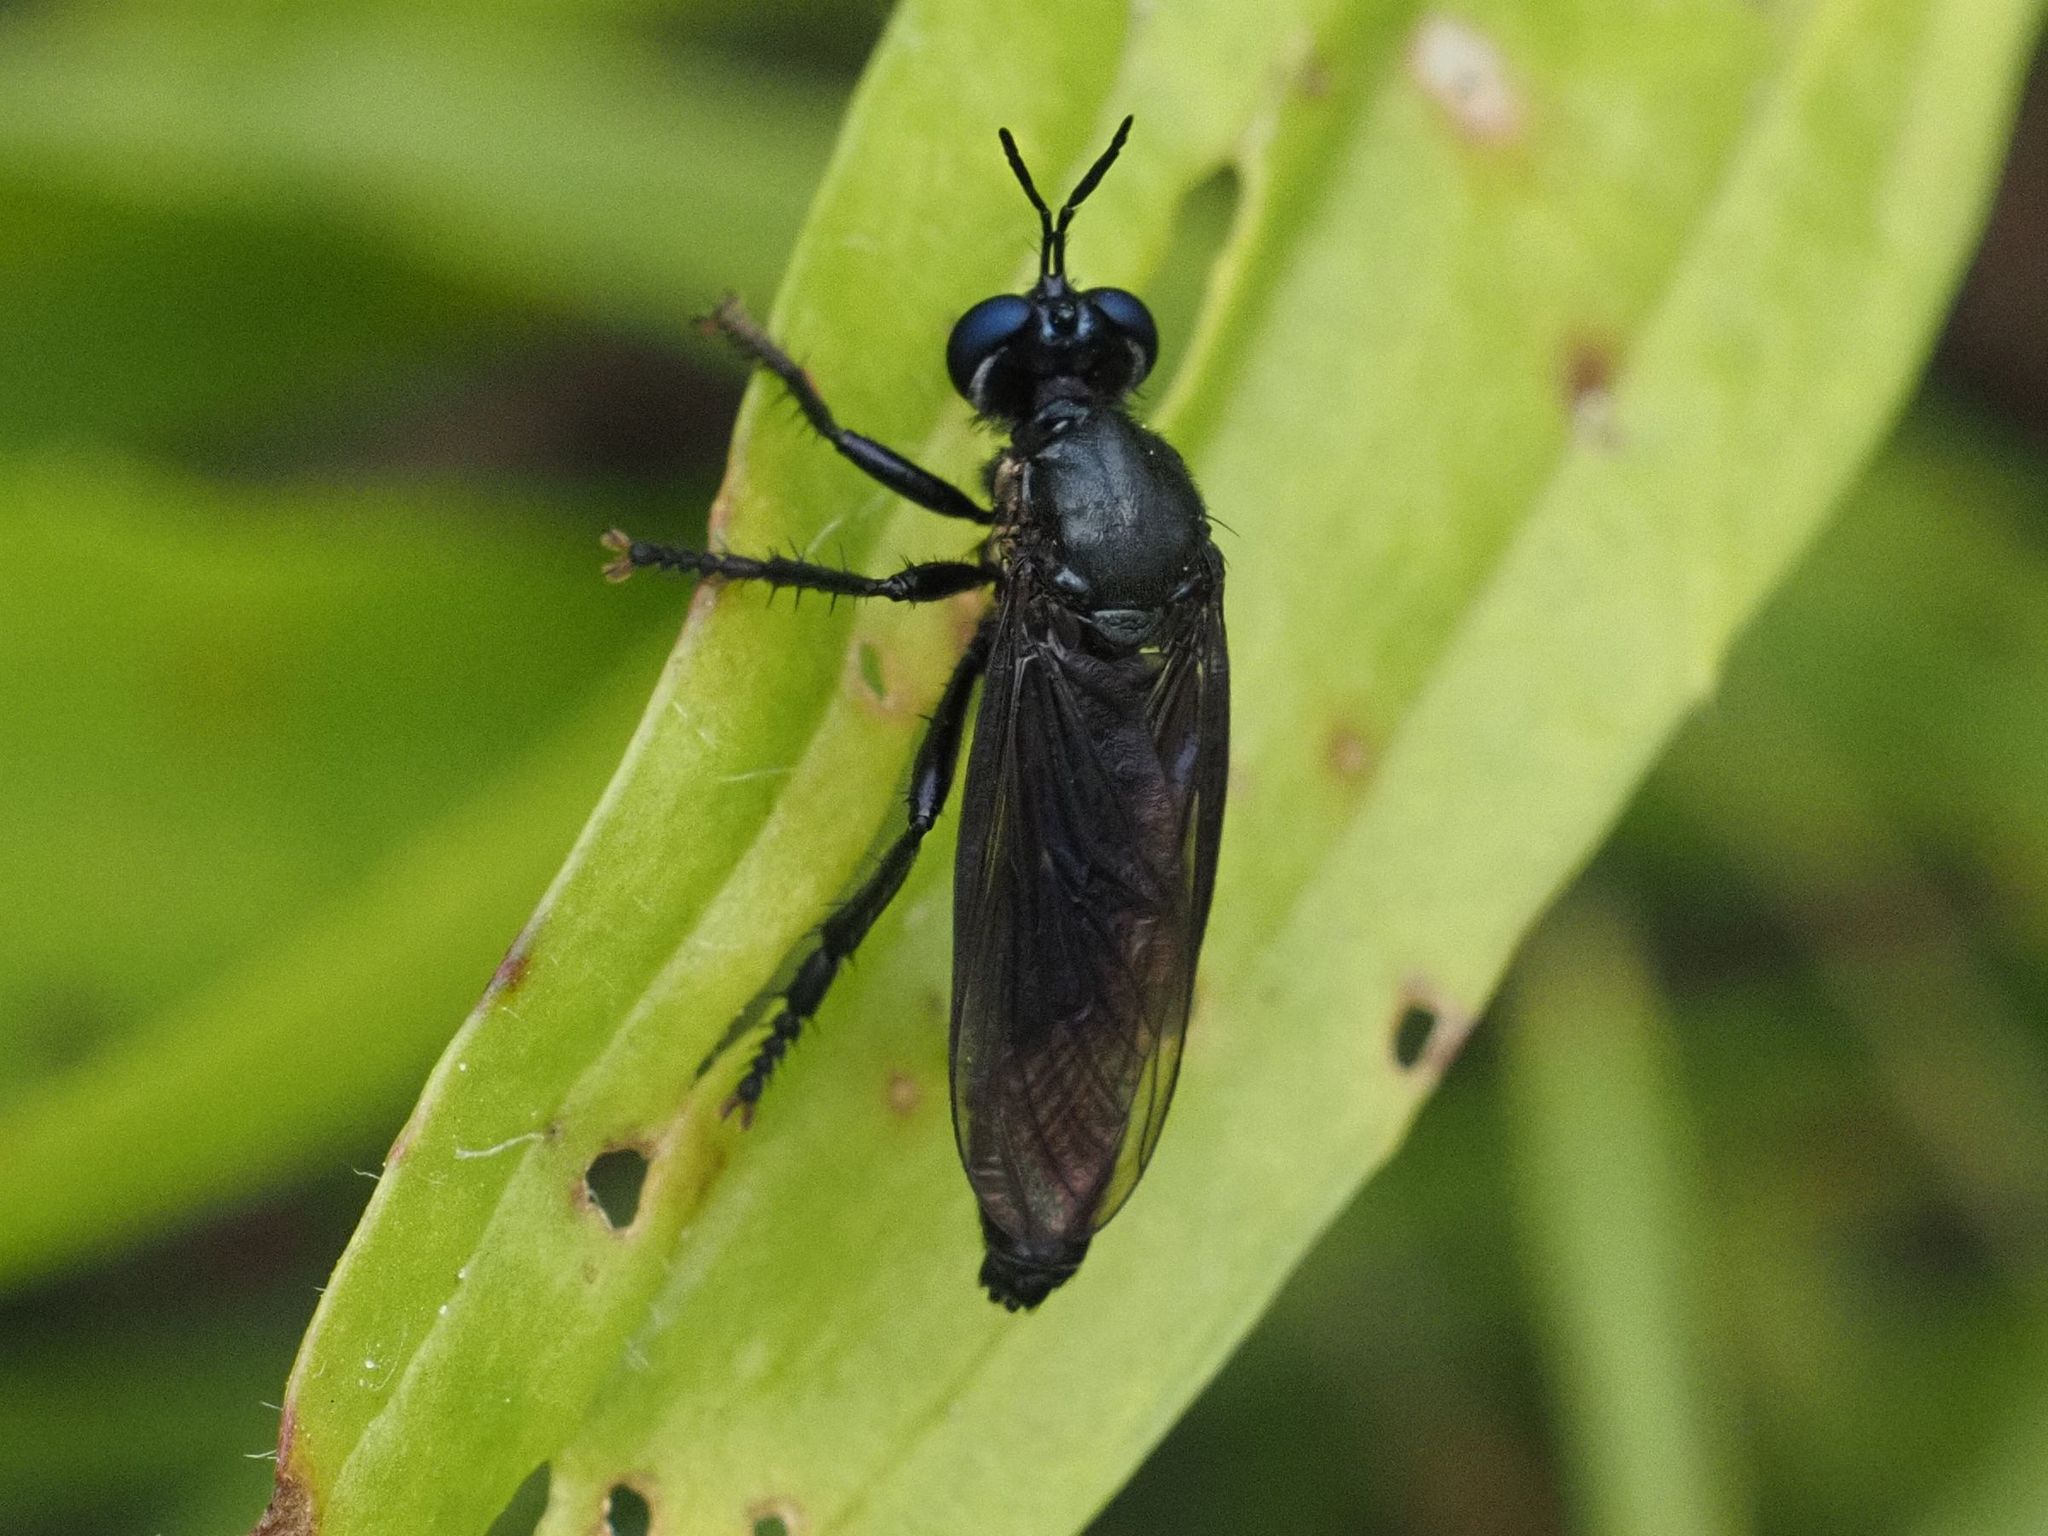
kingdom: Animalia
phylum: Arthropoda
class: Insecta
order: Diptera
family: Asilidae
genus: Dioctria
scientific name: Dioctria atricapilla
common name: Violet black-legged
